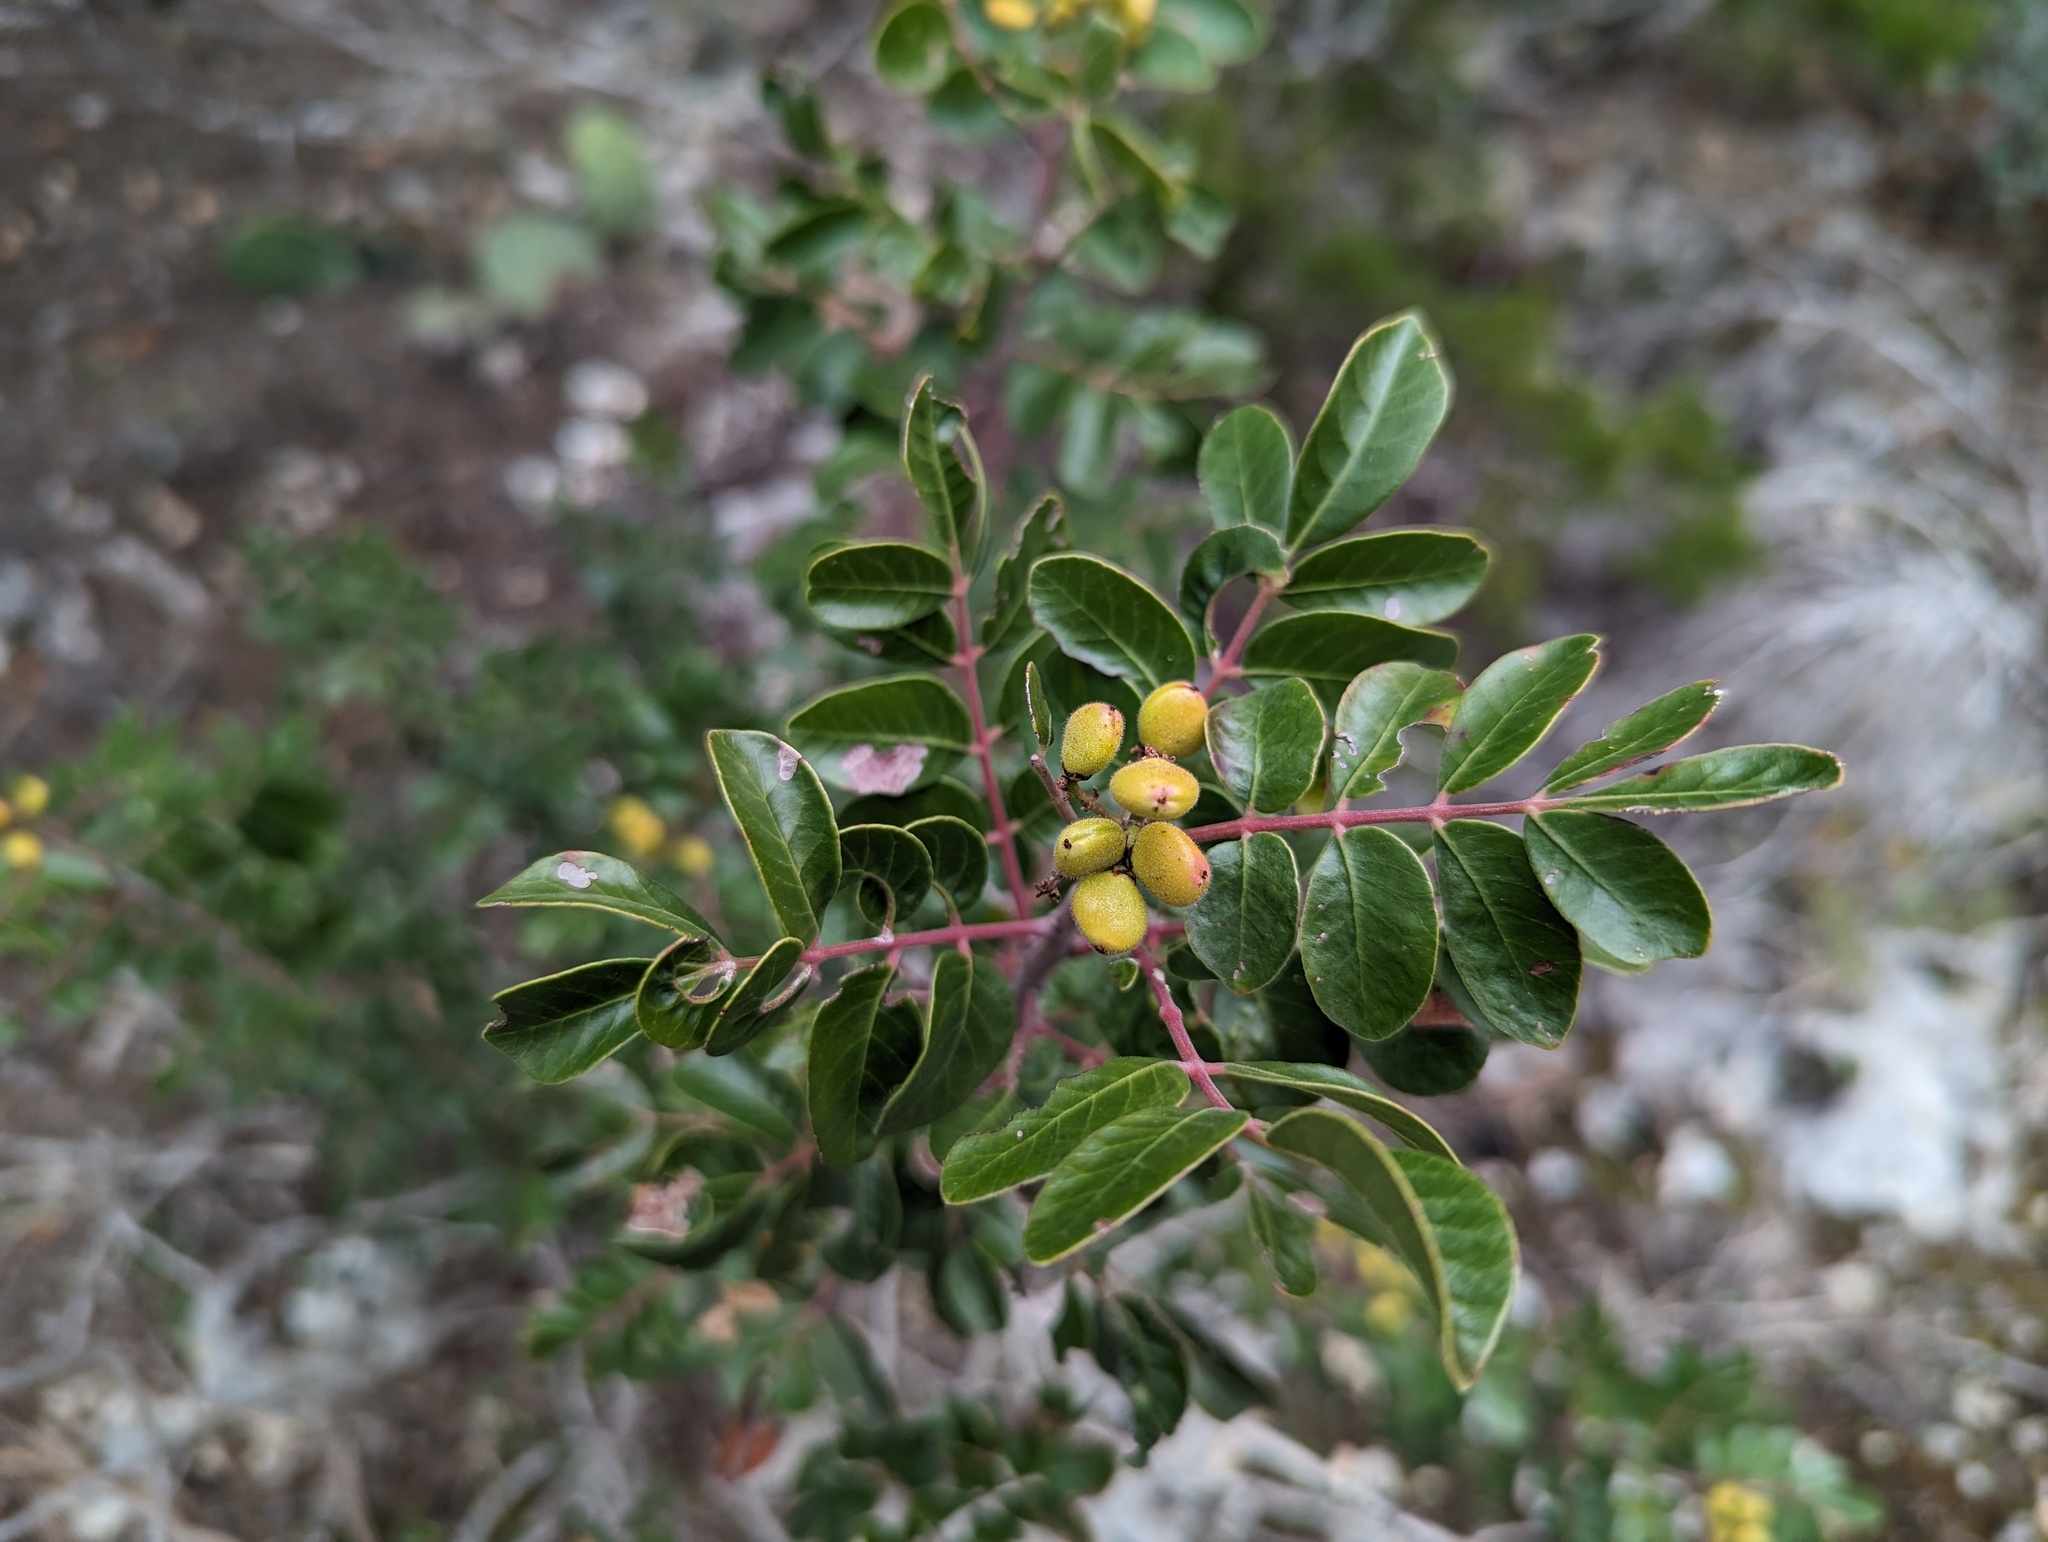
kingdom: Plantae
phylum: Tracheophyta
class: Magnoliopsida
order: Sapindales
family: Anacardiaceae
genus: Rhus
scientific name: Rhus virens
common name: Evergreen sumac
